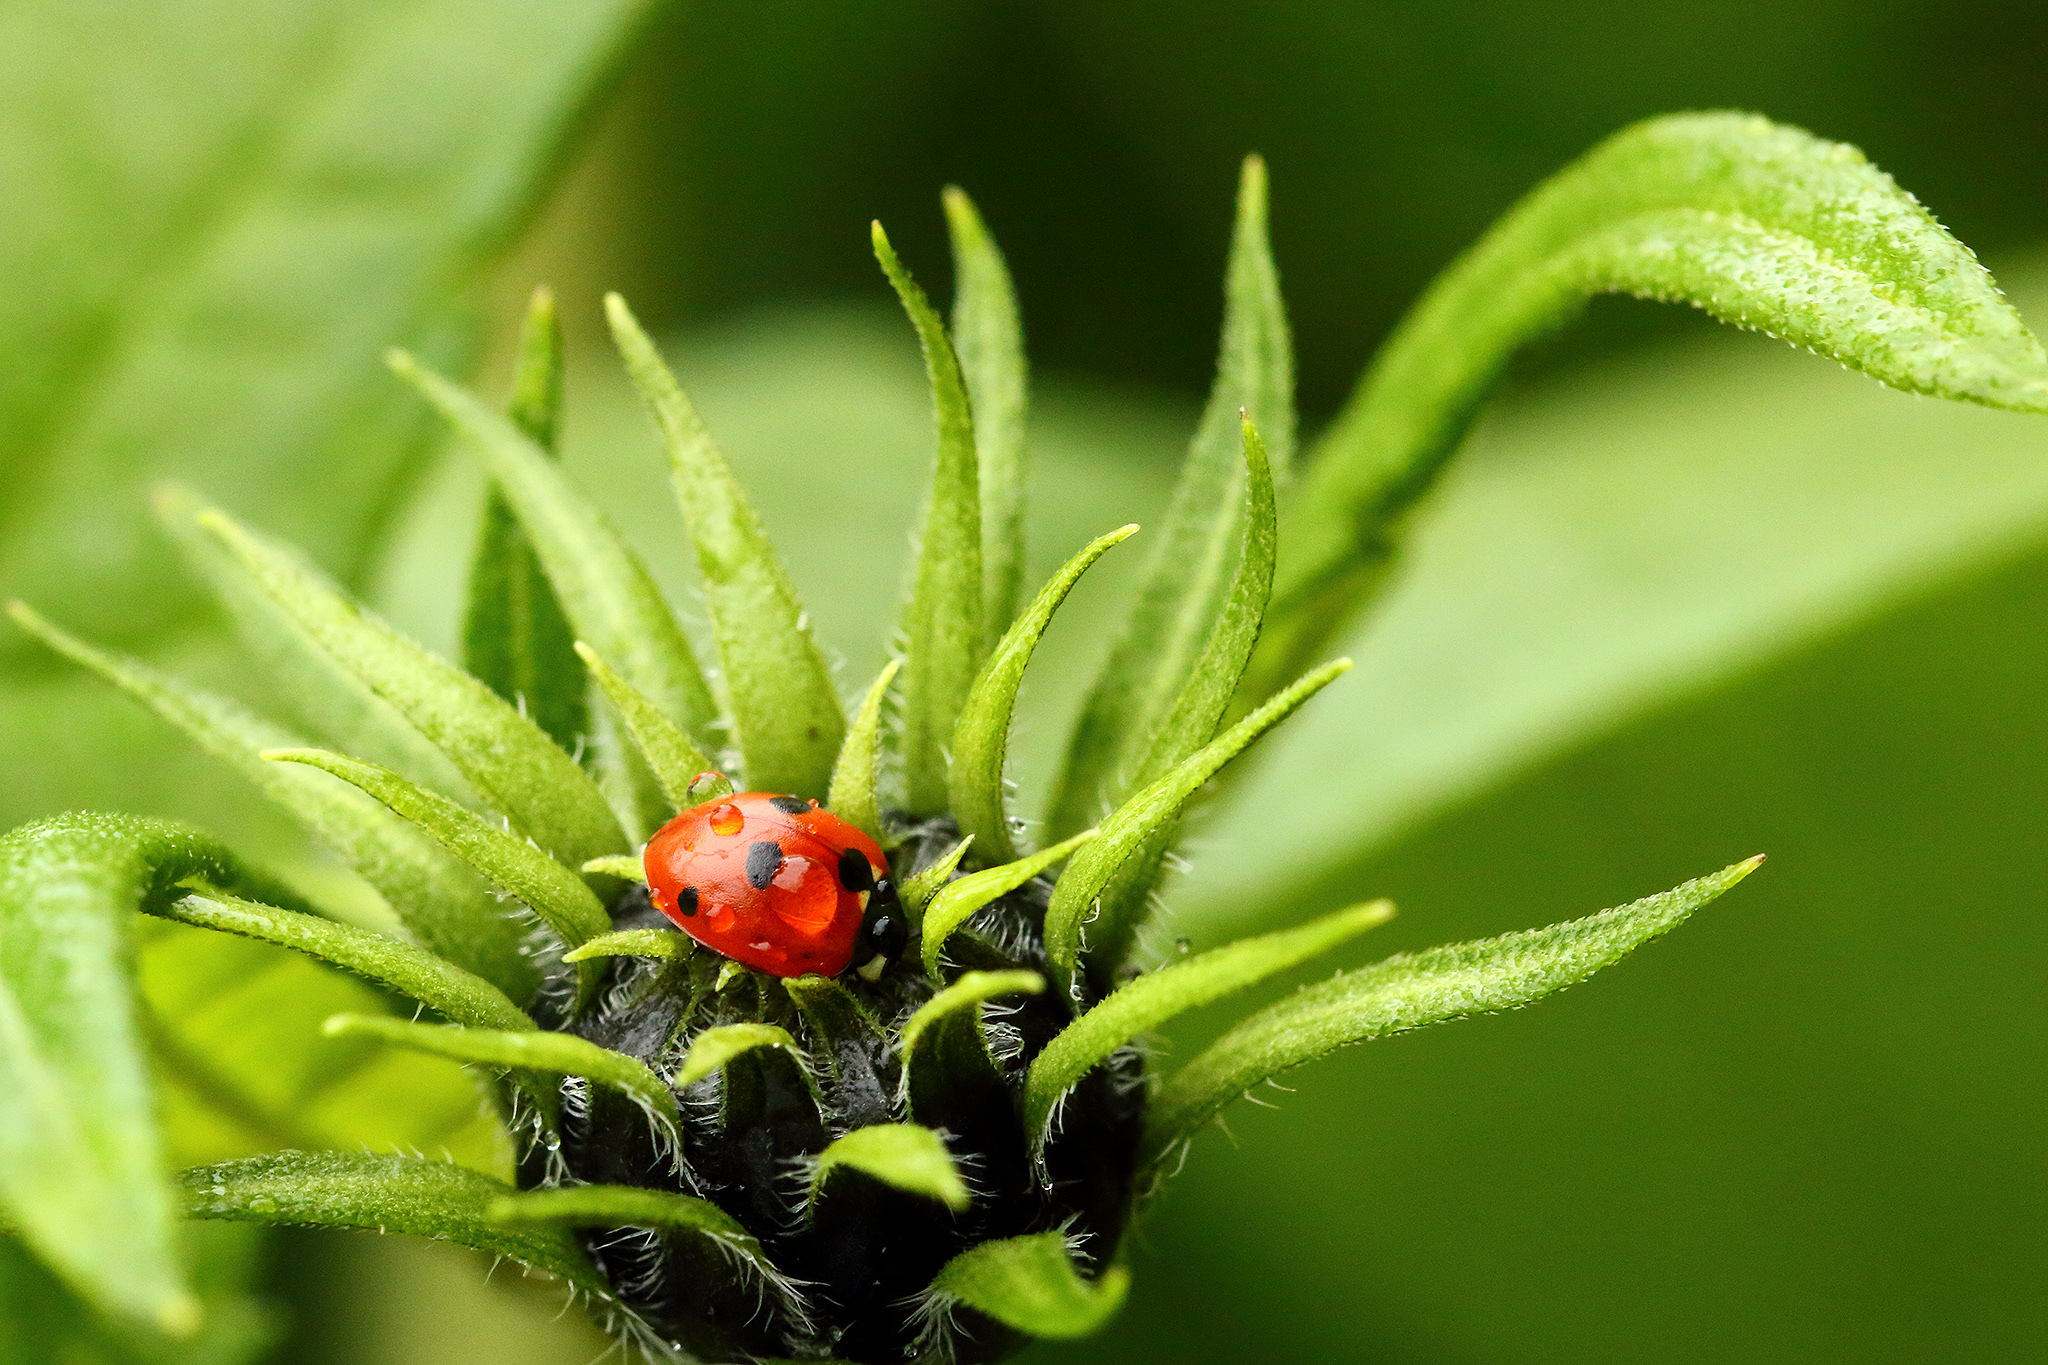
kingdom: Animalia
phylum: Arthropoda
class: Insecta
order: Coleoptera
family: Coccinellidae
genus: Coccinella
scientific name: Coccinella quinquepunctata
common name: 5-spot ladybird
